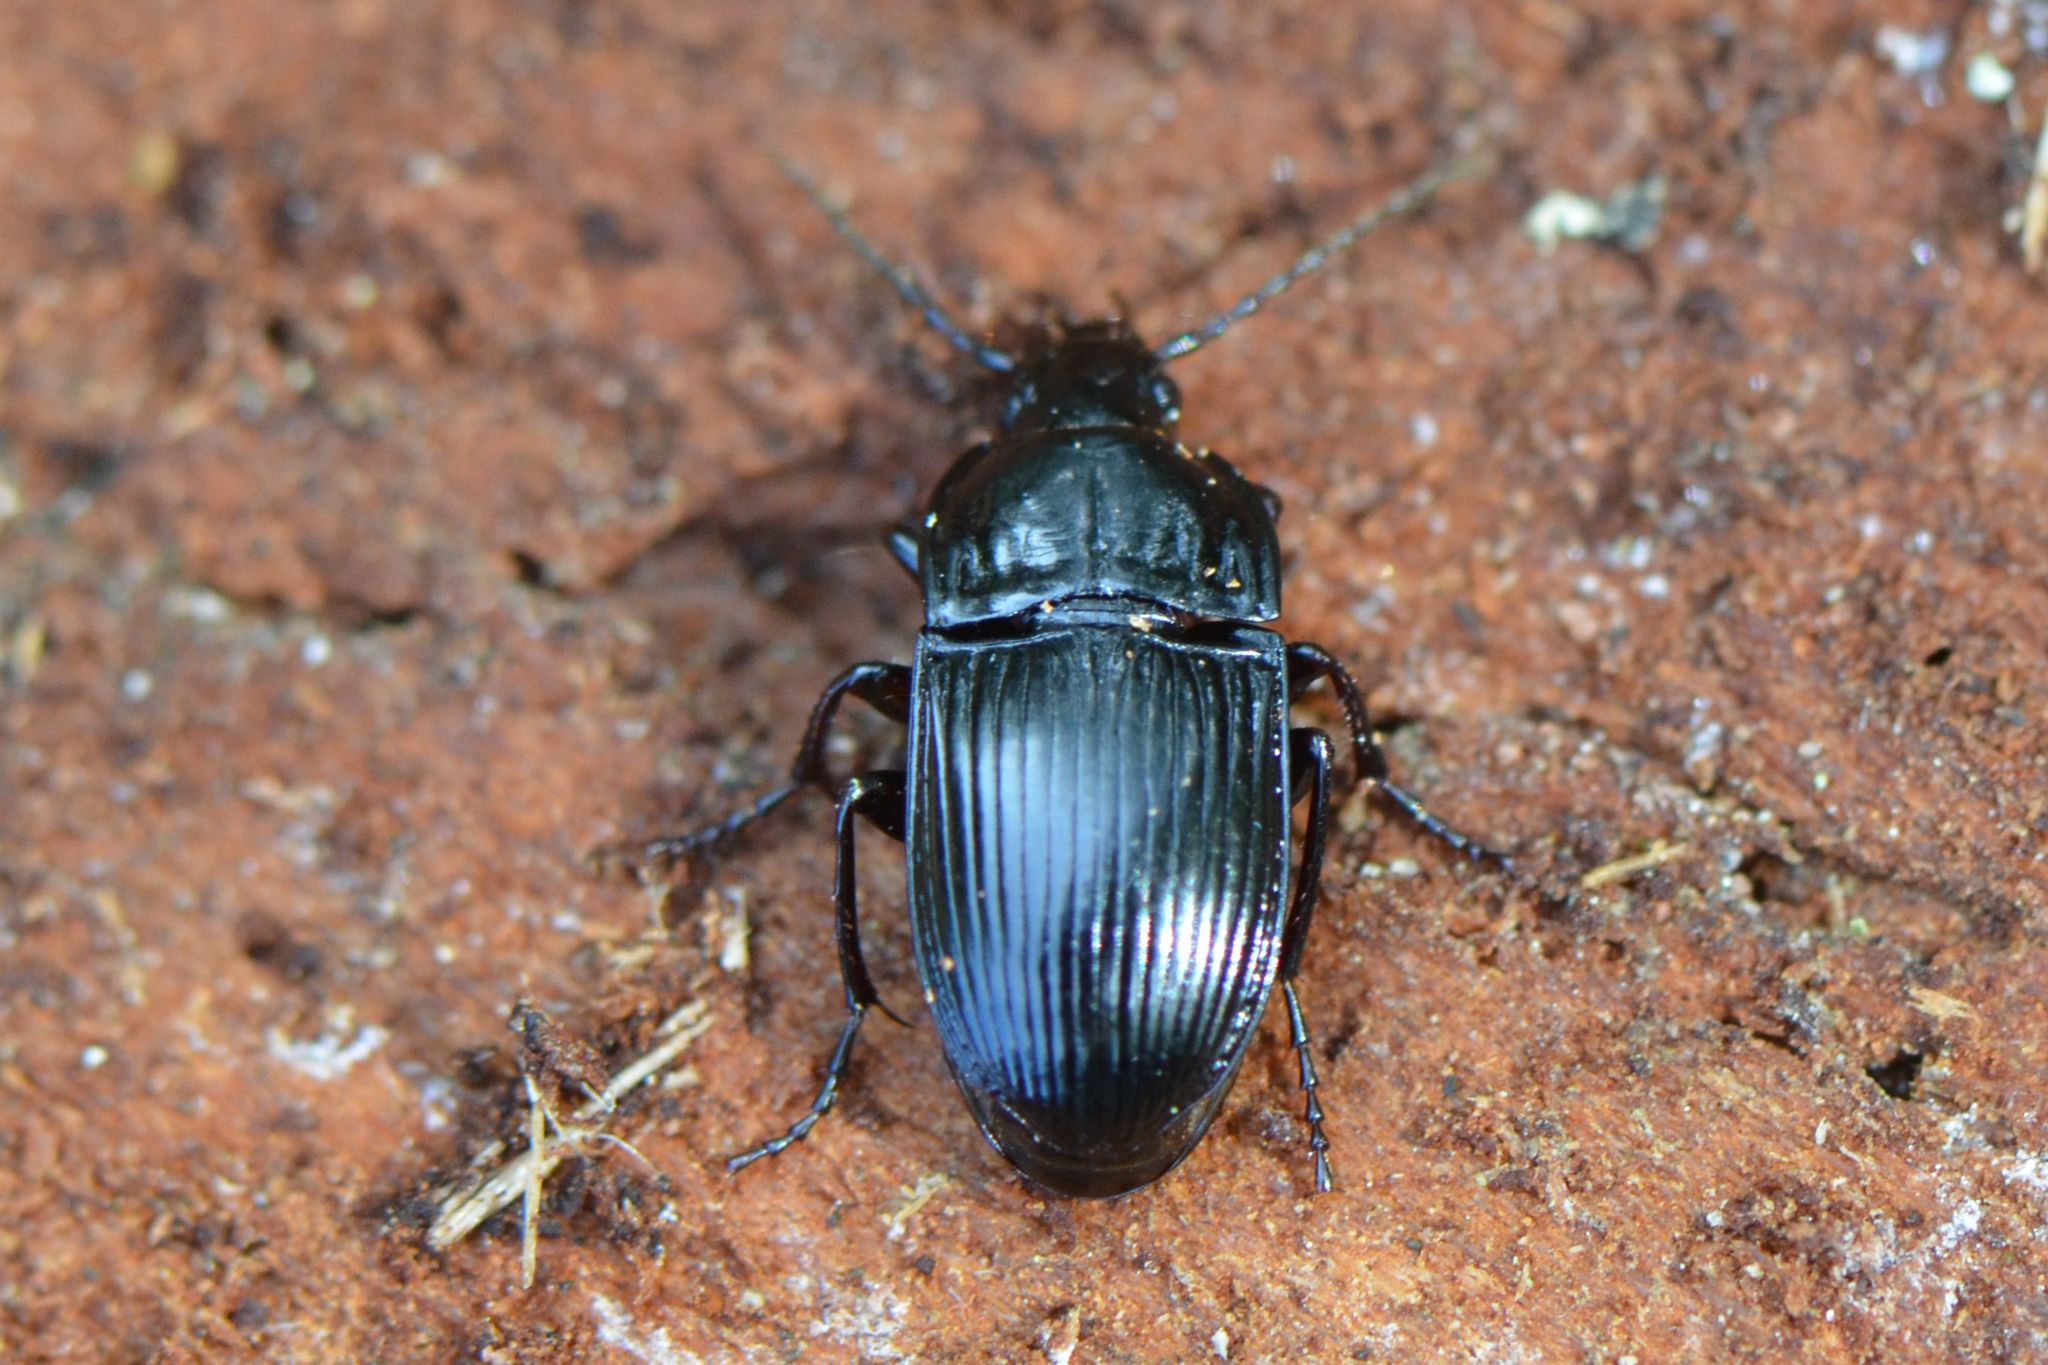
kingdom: Animalia
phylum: Arthropoda
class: Insecta
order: Coleoptera
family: Carabidae
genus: Abax
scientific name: Abax ovalis
